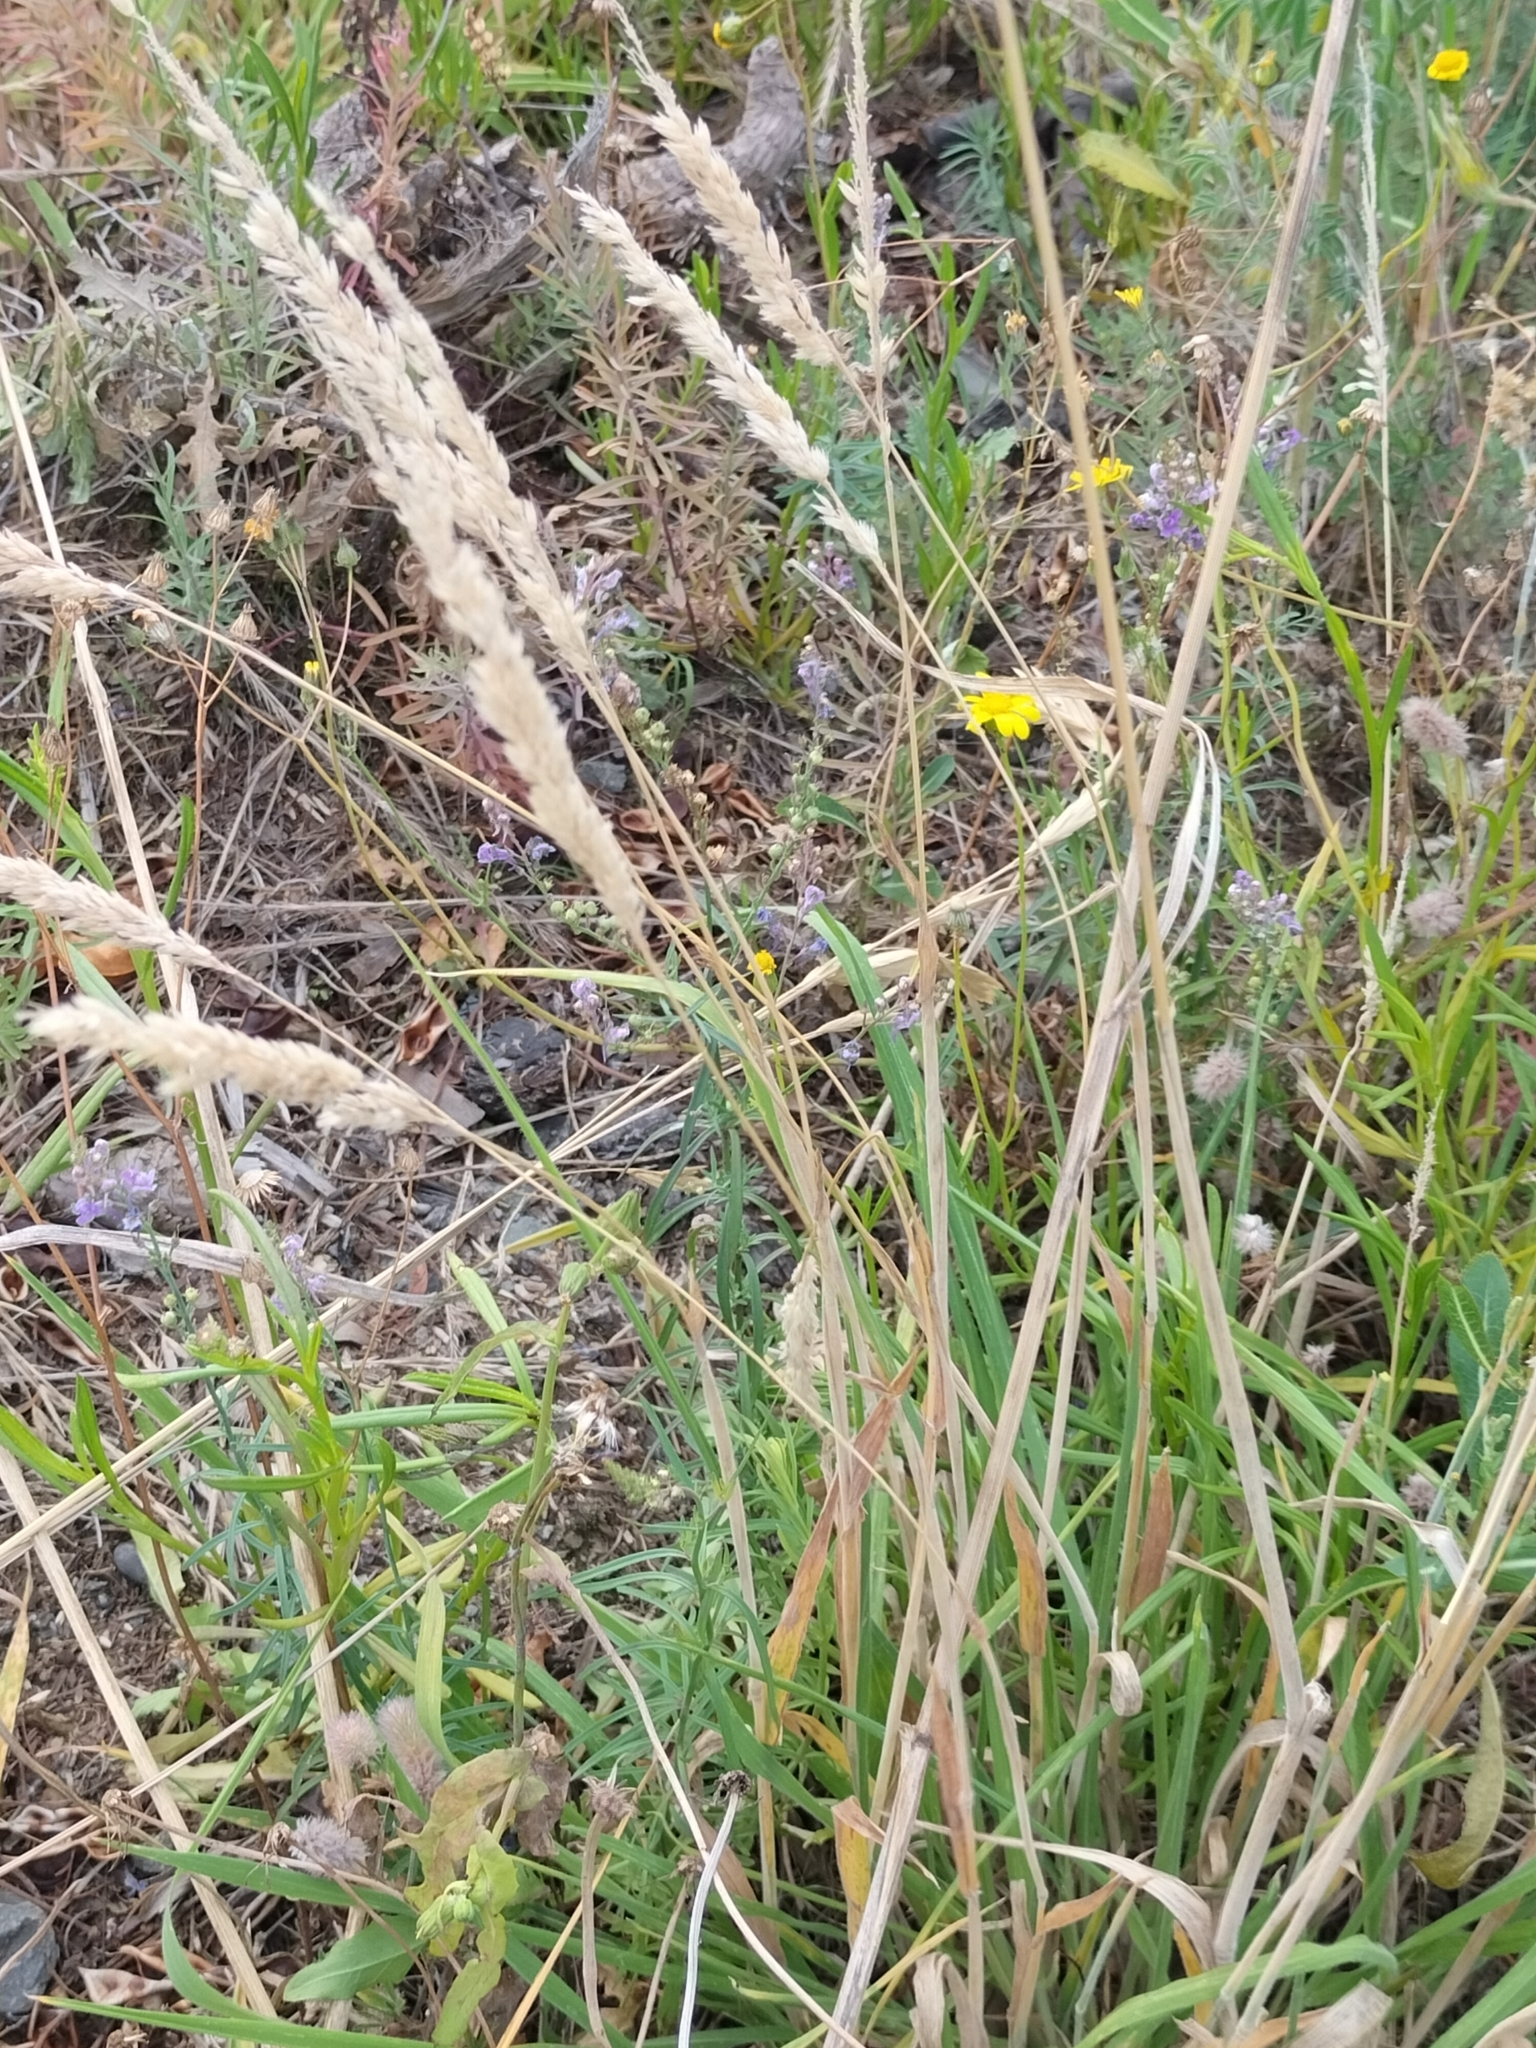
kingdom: Plantae
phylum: Tracheophyta
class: Liliopsida
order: Poales
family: Poaceae
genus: Holcus
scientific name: Holcus lanatus
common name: Yorkshire-fog
